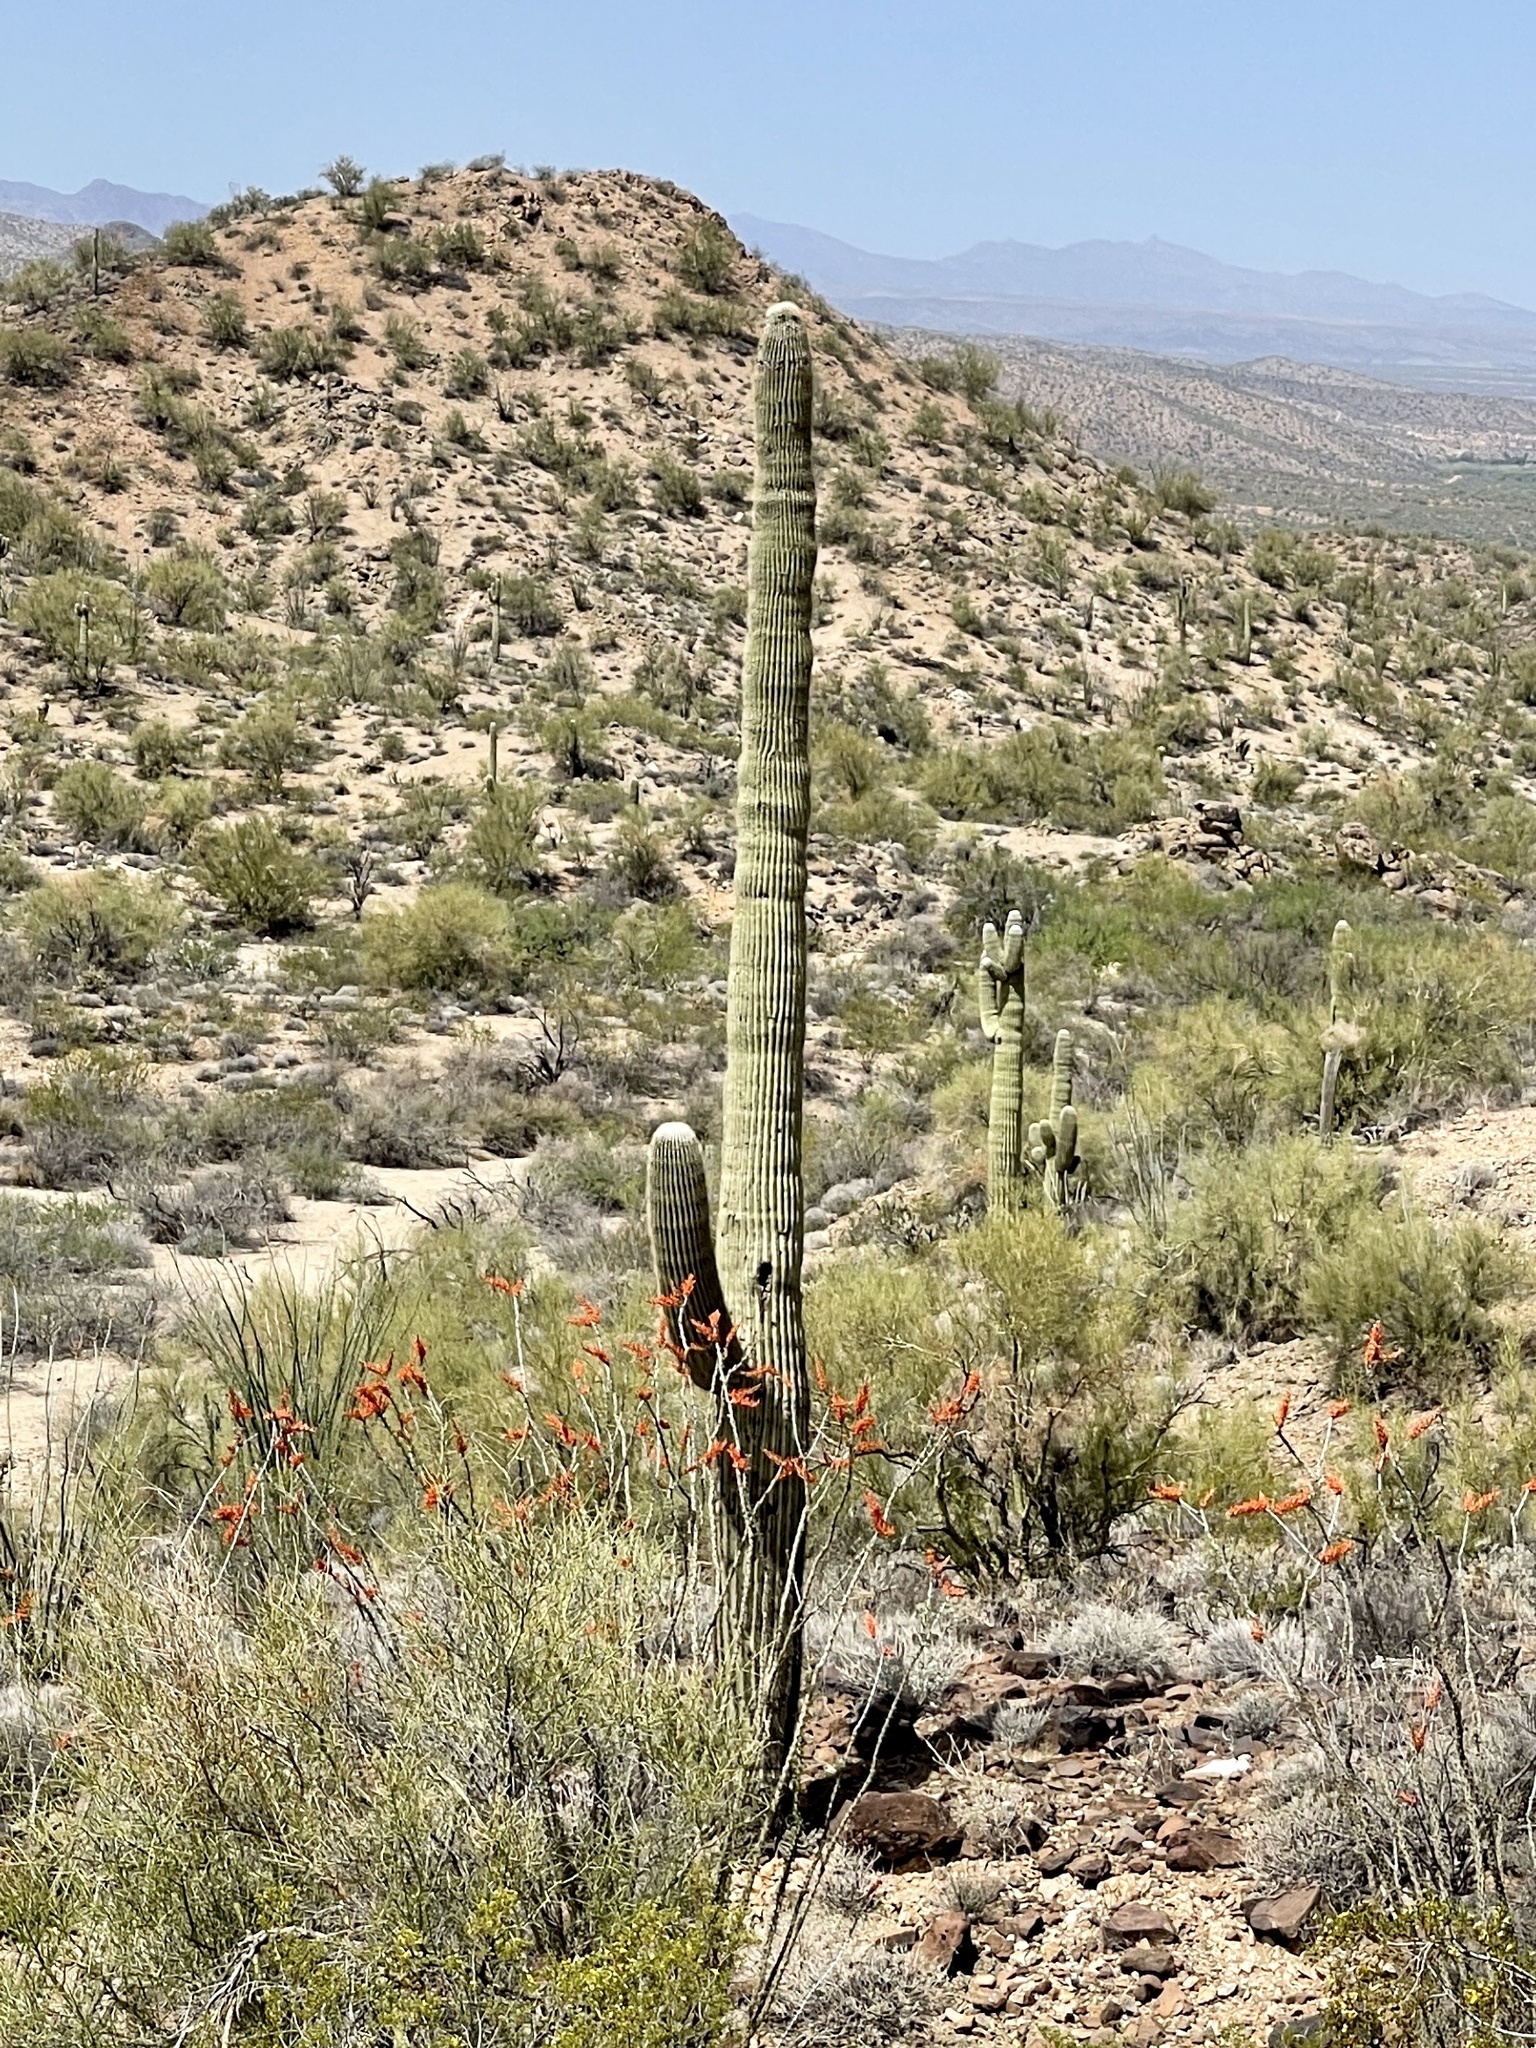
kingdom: Plantae
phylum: Tracheophyta
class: Magnoliopsida
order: Caryophyllales
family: Cactaceae
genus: Carnegiea
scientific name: Carnegiea gigantea
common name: Saguaro
